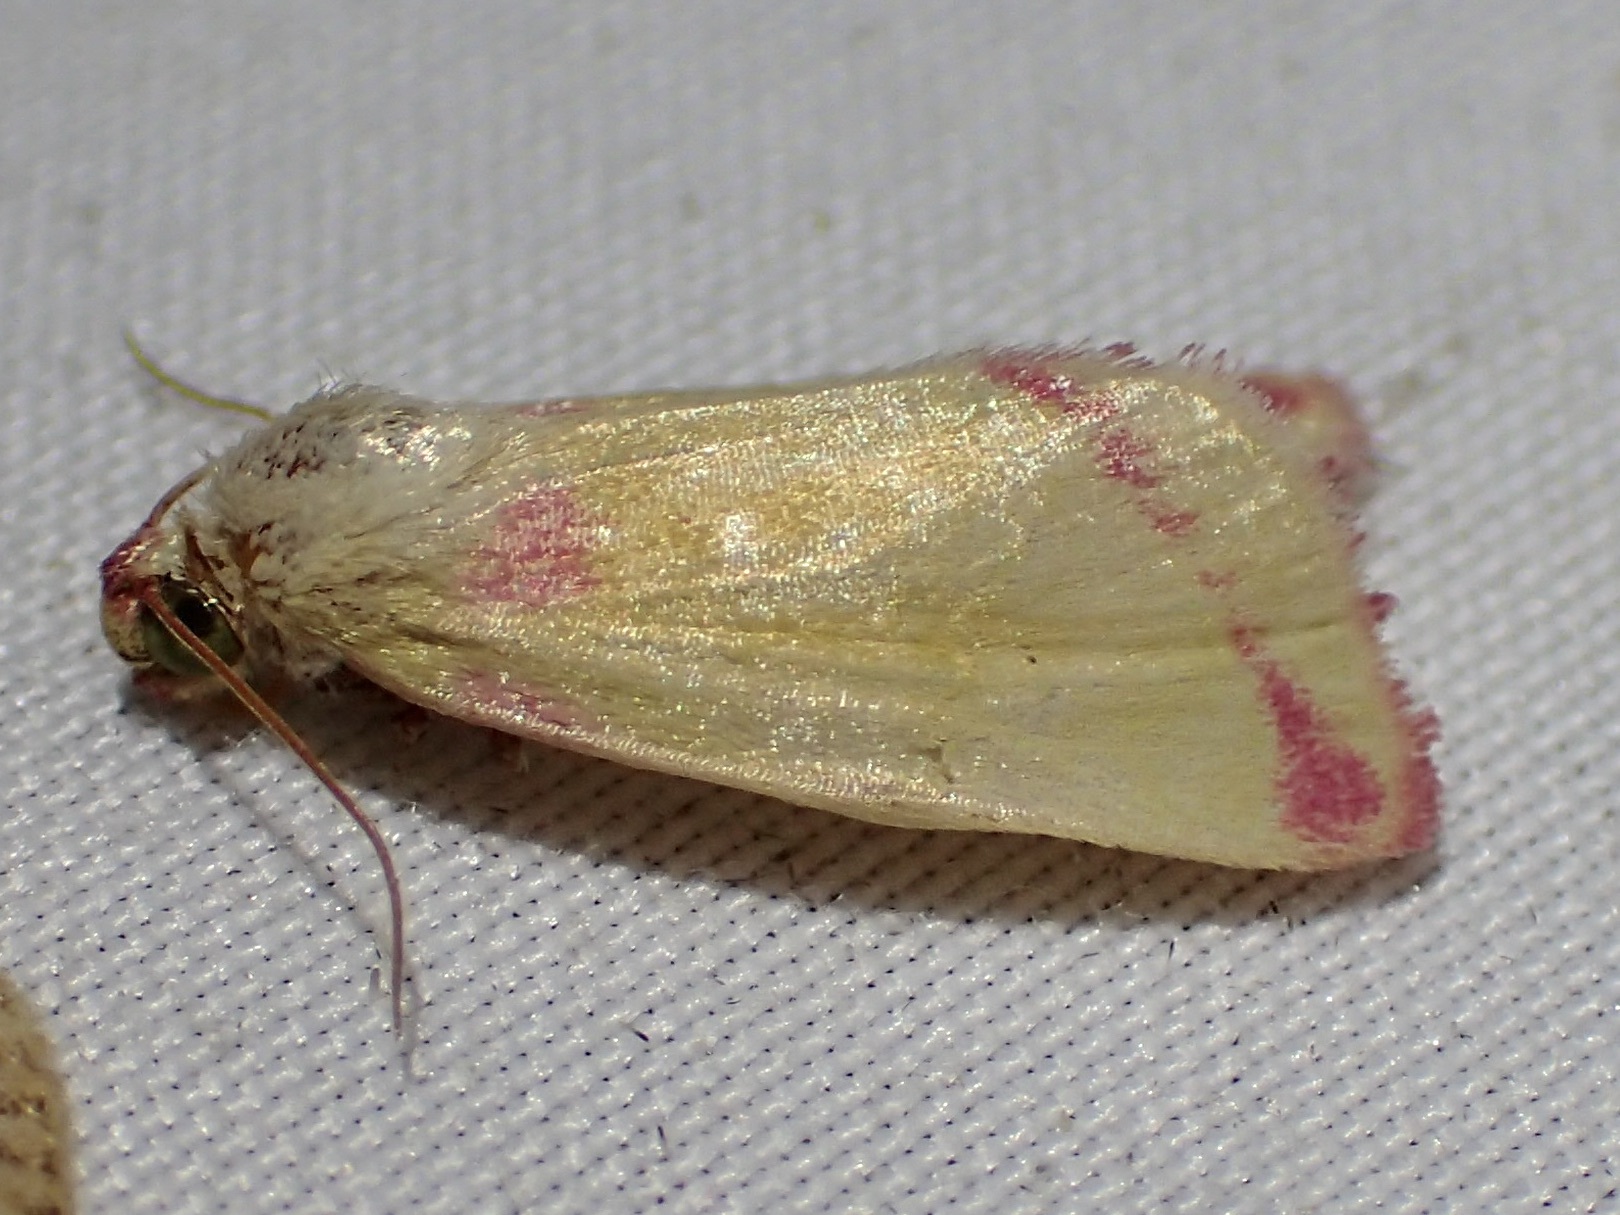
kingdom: Animalia
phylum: Arthropoda
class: Insecta
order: Lepidoptera
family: Noctuidae
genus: Heliocheilus
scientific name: Heliocheilus toralis
